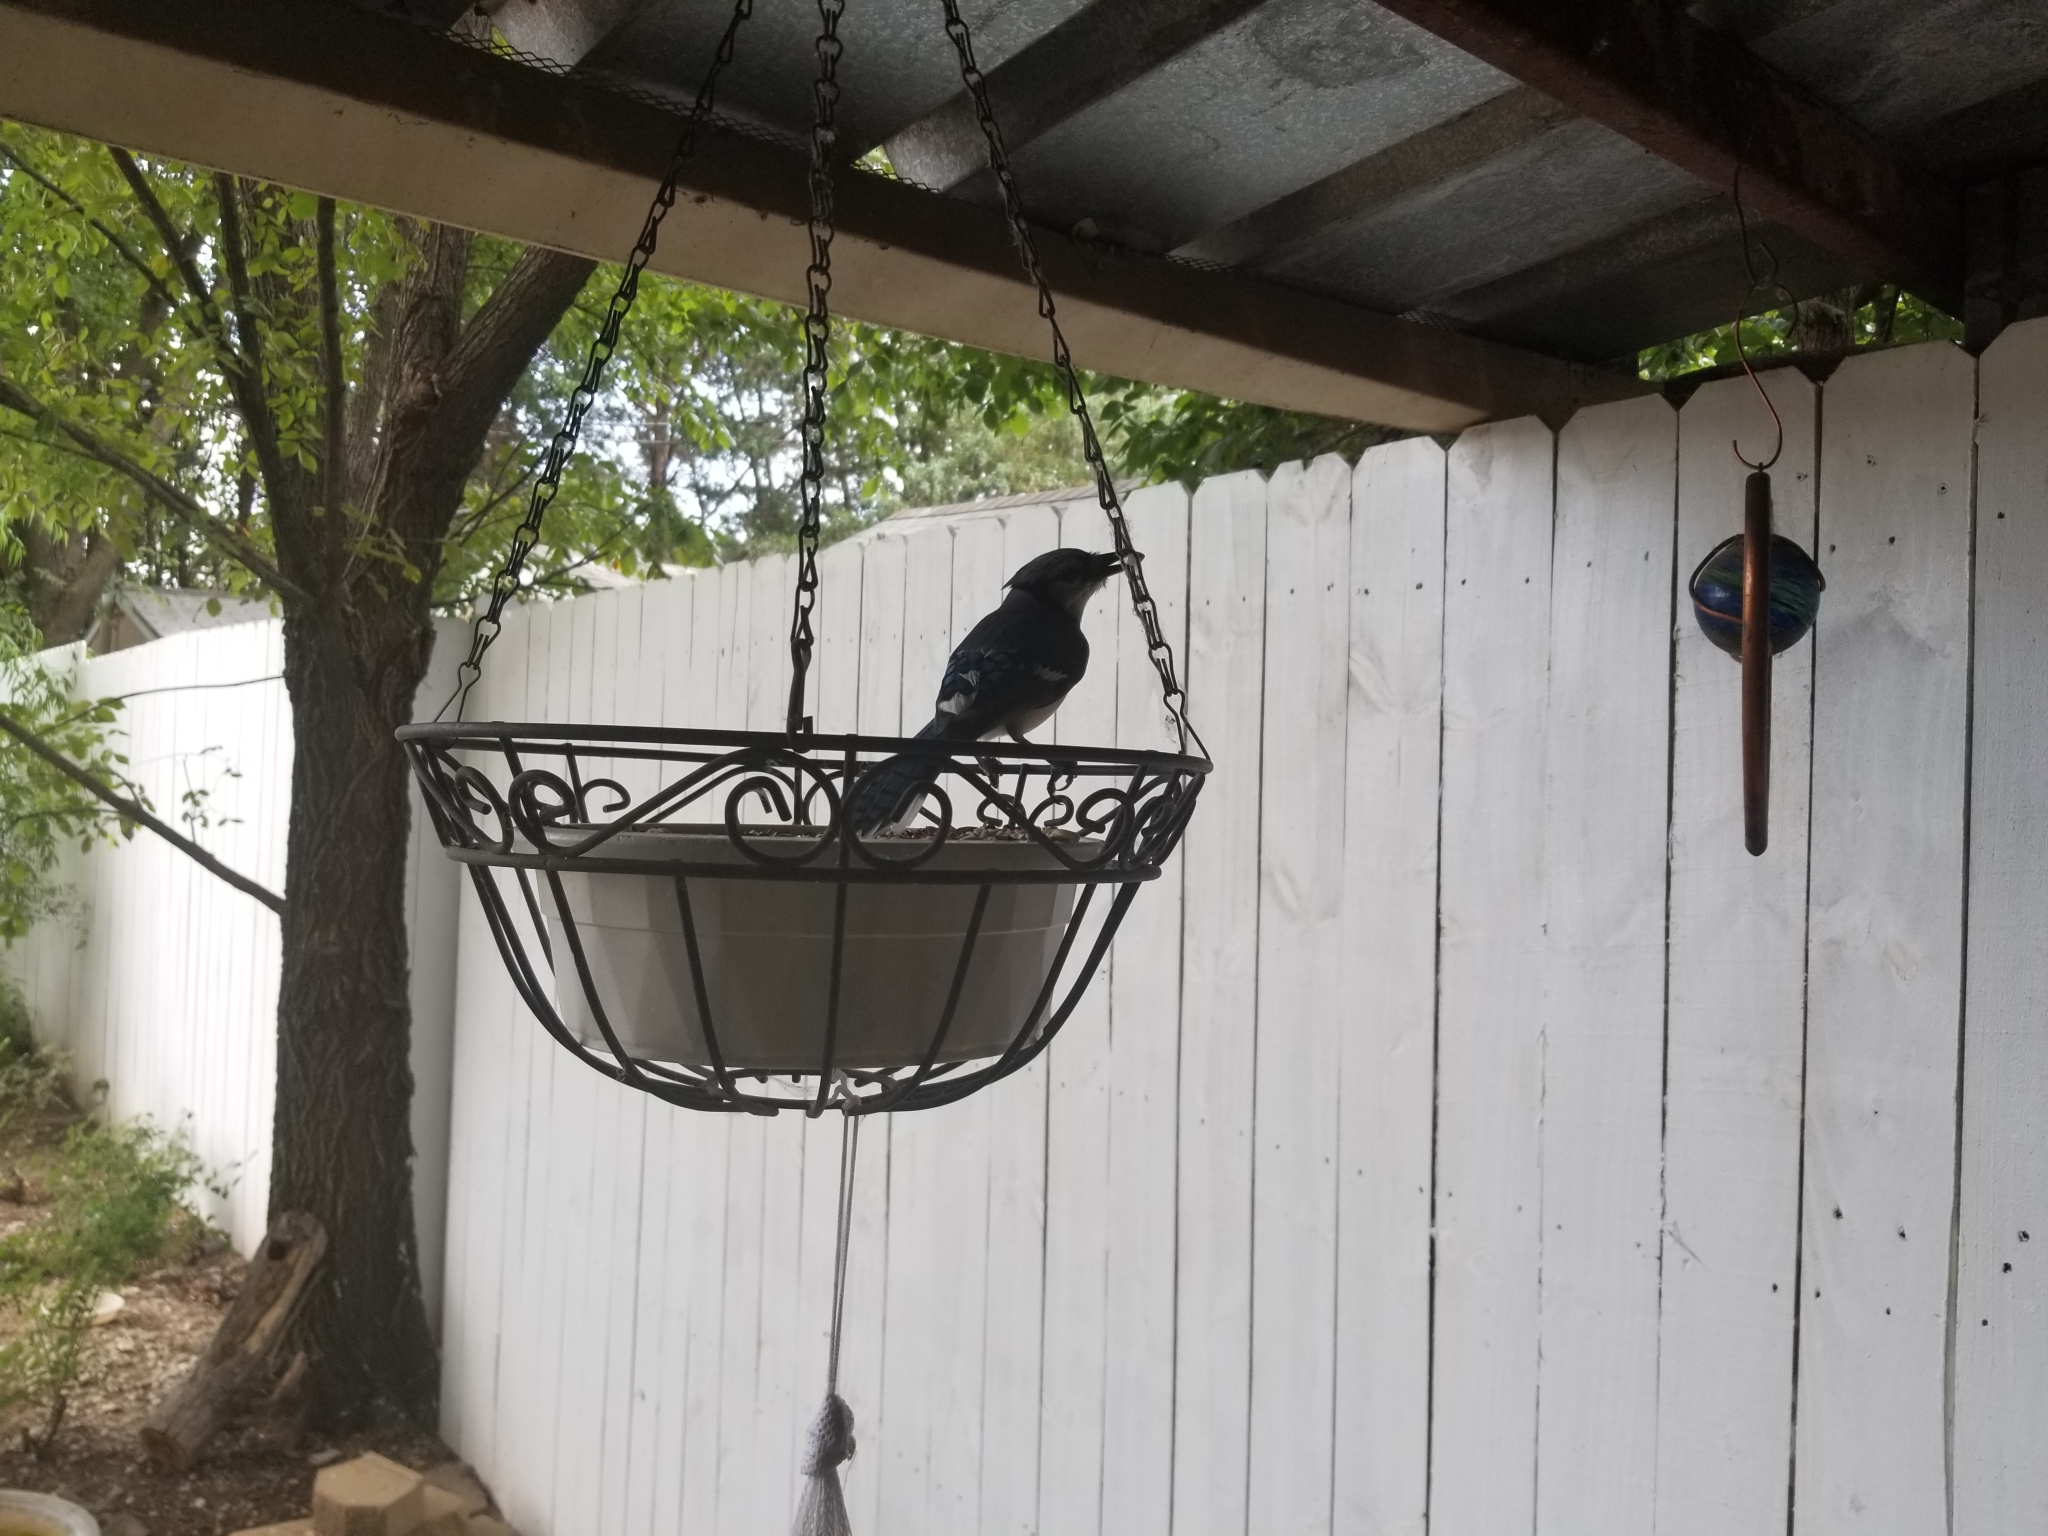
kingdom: Animalia
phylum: Chordata
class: Aves
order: Passeriformes
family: Corvidae
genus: Cyanocitta
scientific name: Cyanocitta cristata
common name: Blue jay
